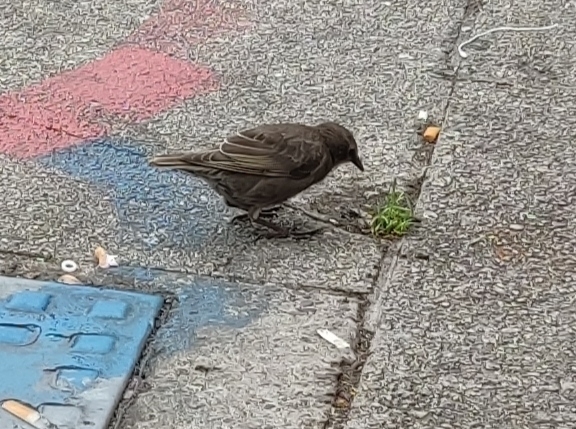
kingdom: Animalia
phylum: Chordata
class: Aves
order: Passeriformes
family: Sturnidae
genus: Sturnus
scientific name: Sturnus vulgaris
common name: Common starling
